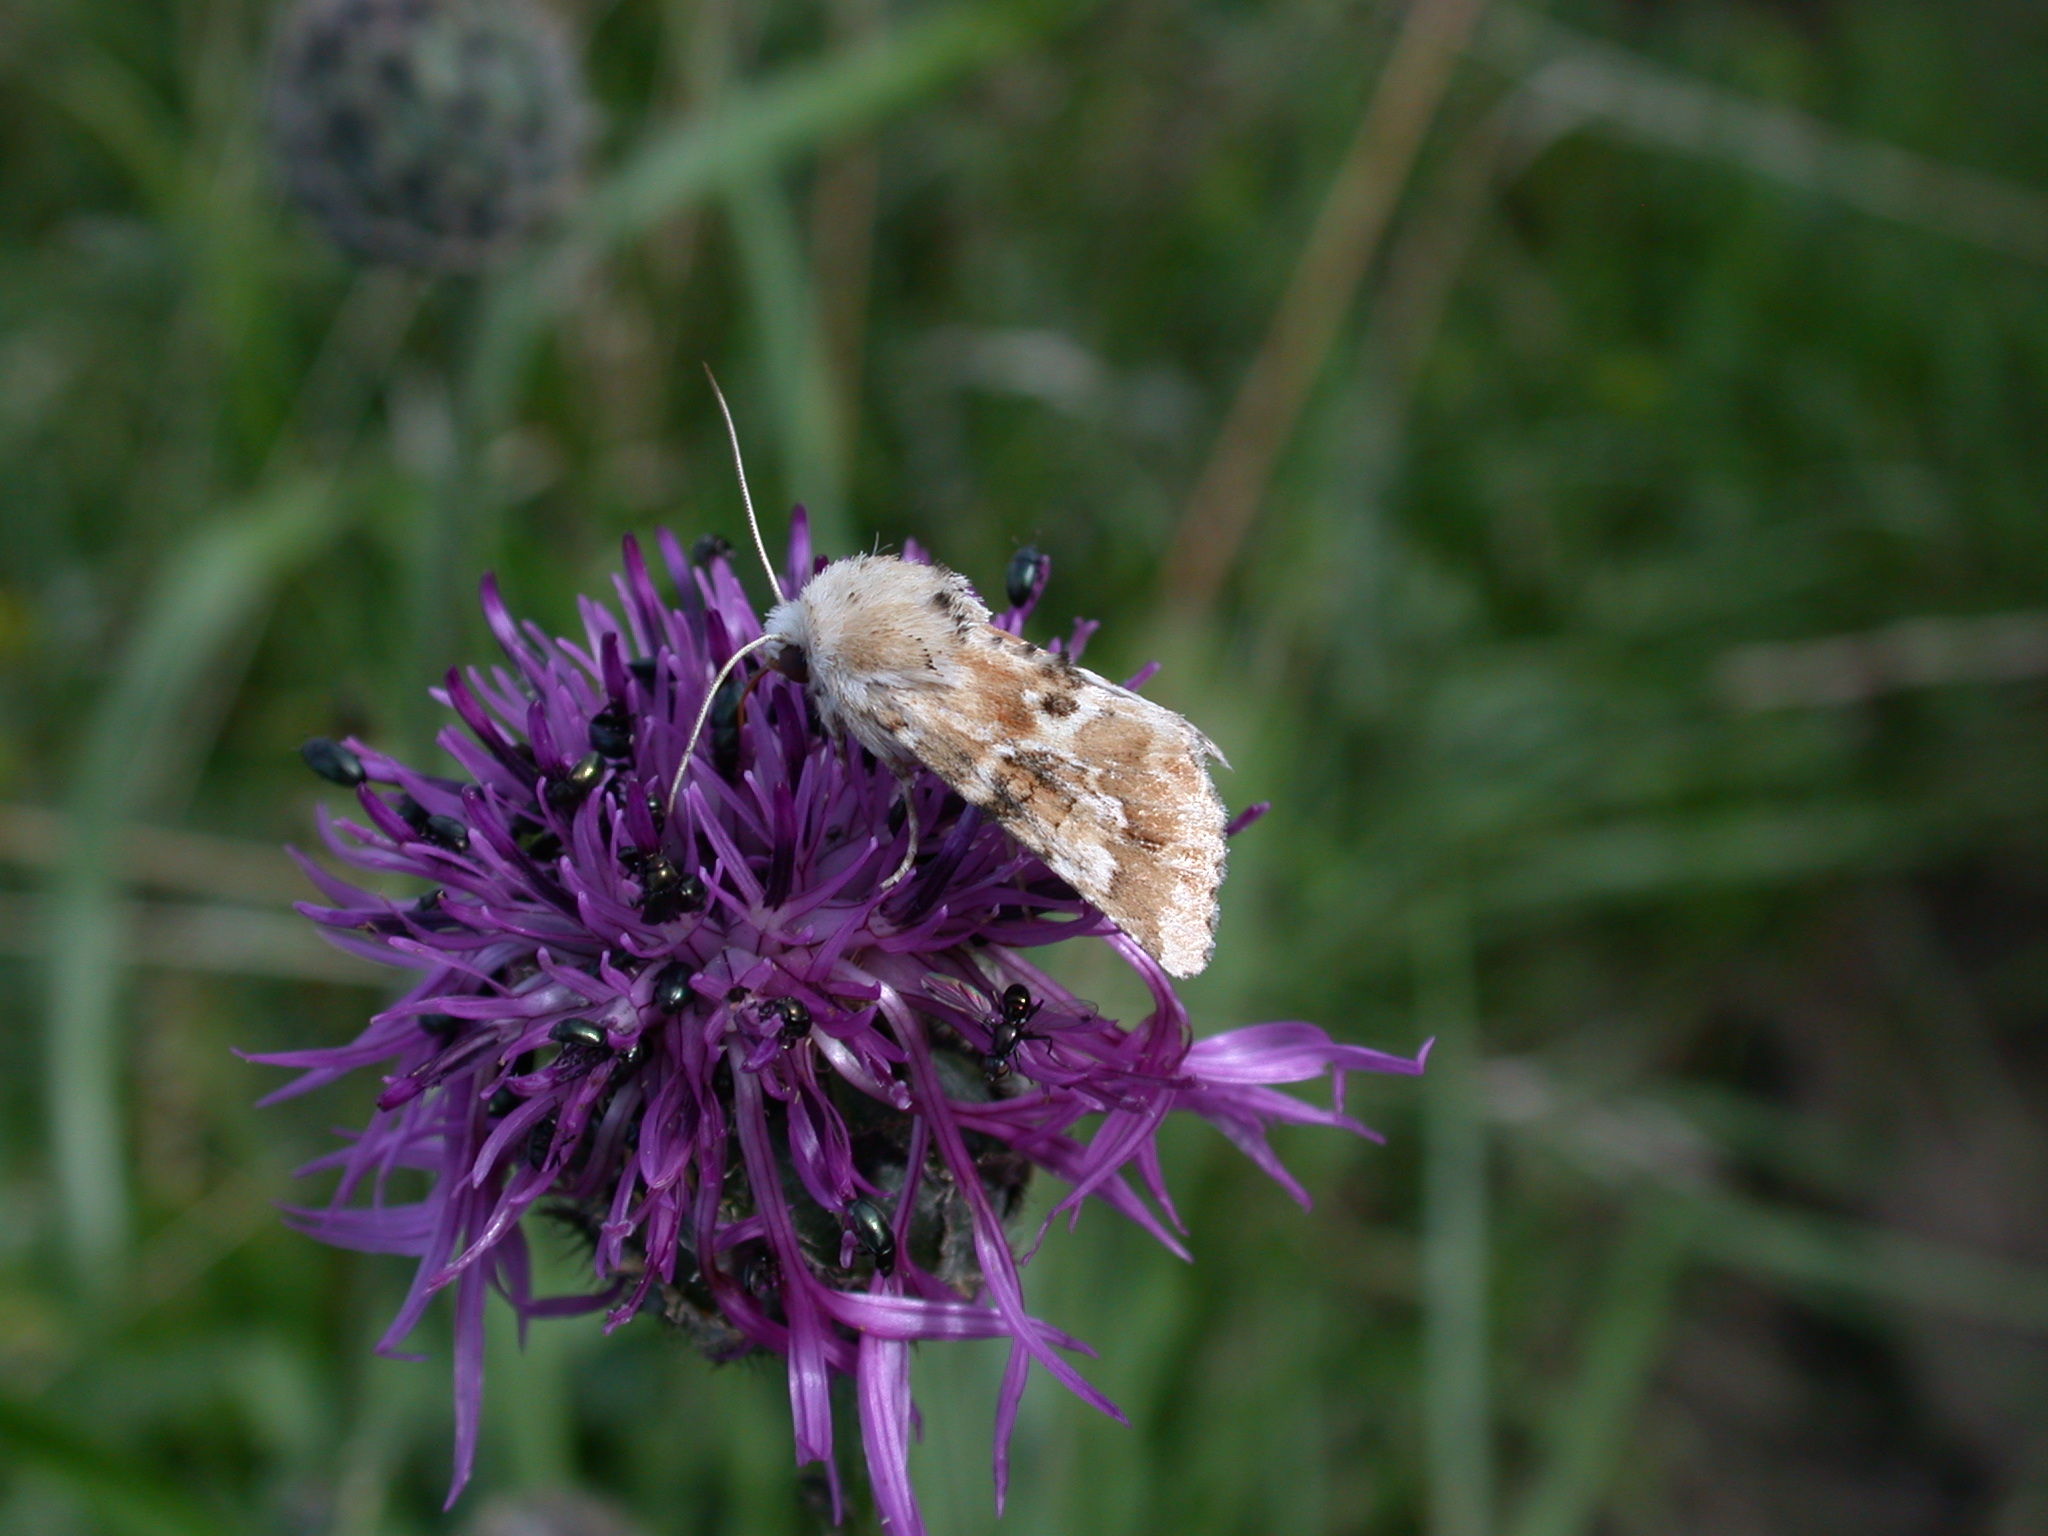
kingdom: Animalia
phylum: Arthropoda
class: Insecta
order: Lepidoptera
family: Noctuidae
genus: Eremobia
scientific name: Eremobia ochroleuca
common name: Dusky sallow
